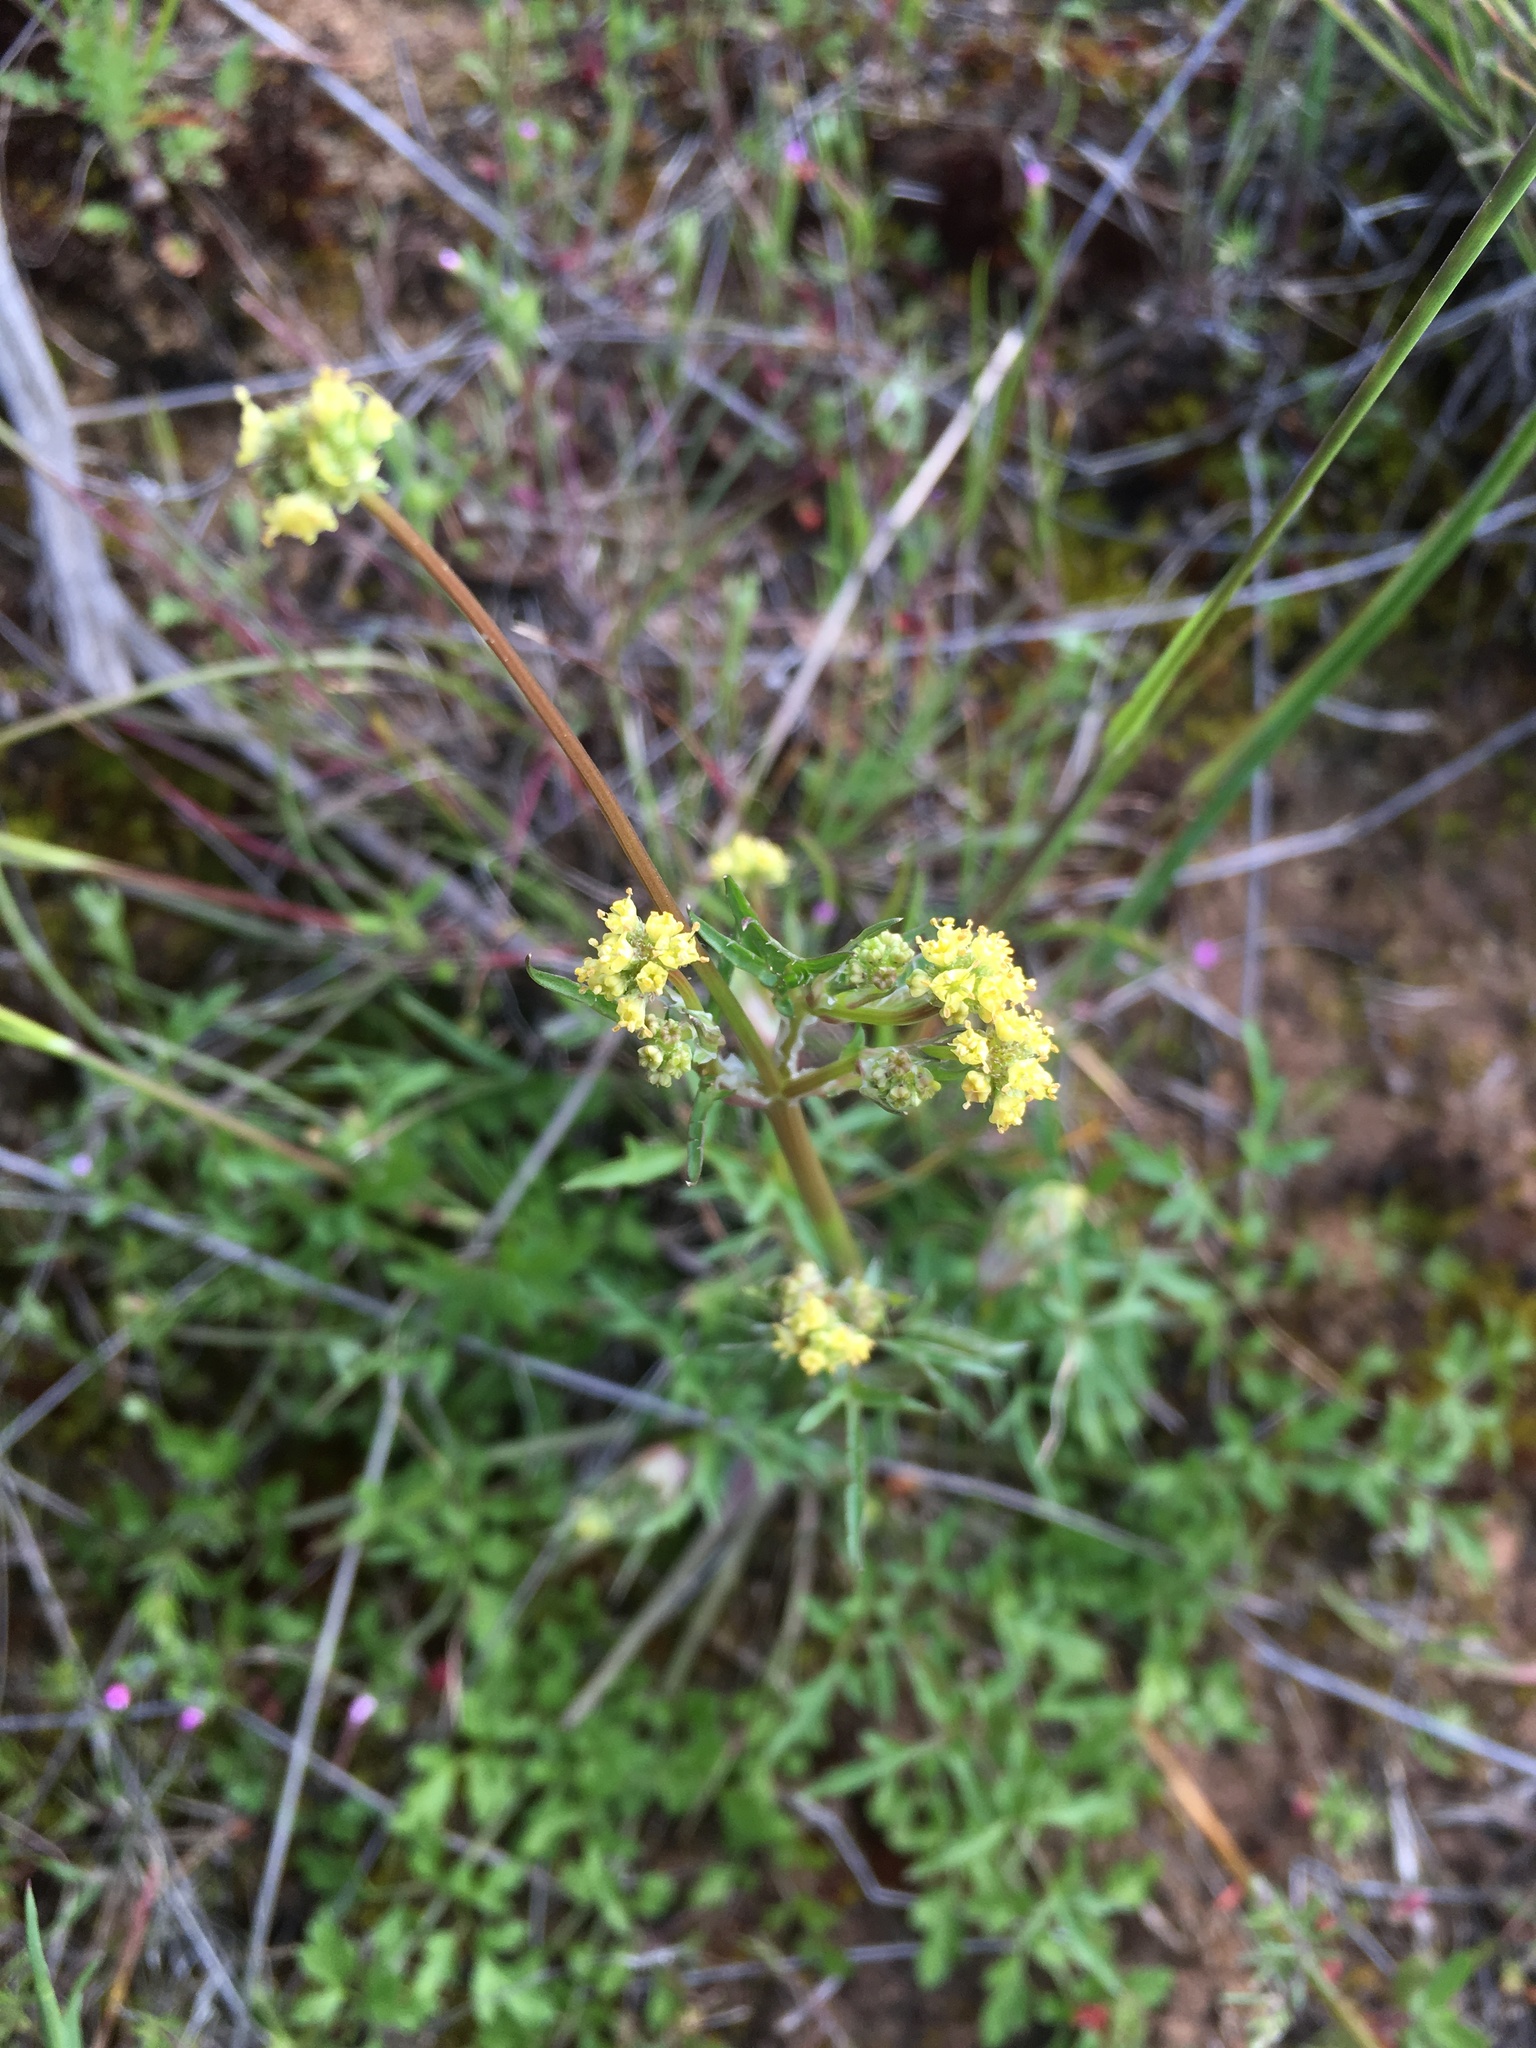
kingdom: Plantae
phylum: Tracheophyta
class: Magnoliopsida
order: Apiales
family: Apiaceae
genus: Sanicula
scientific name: Sanicula bipinnata
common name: Poison sanicle
